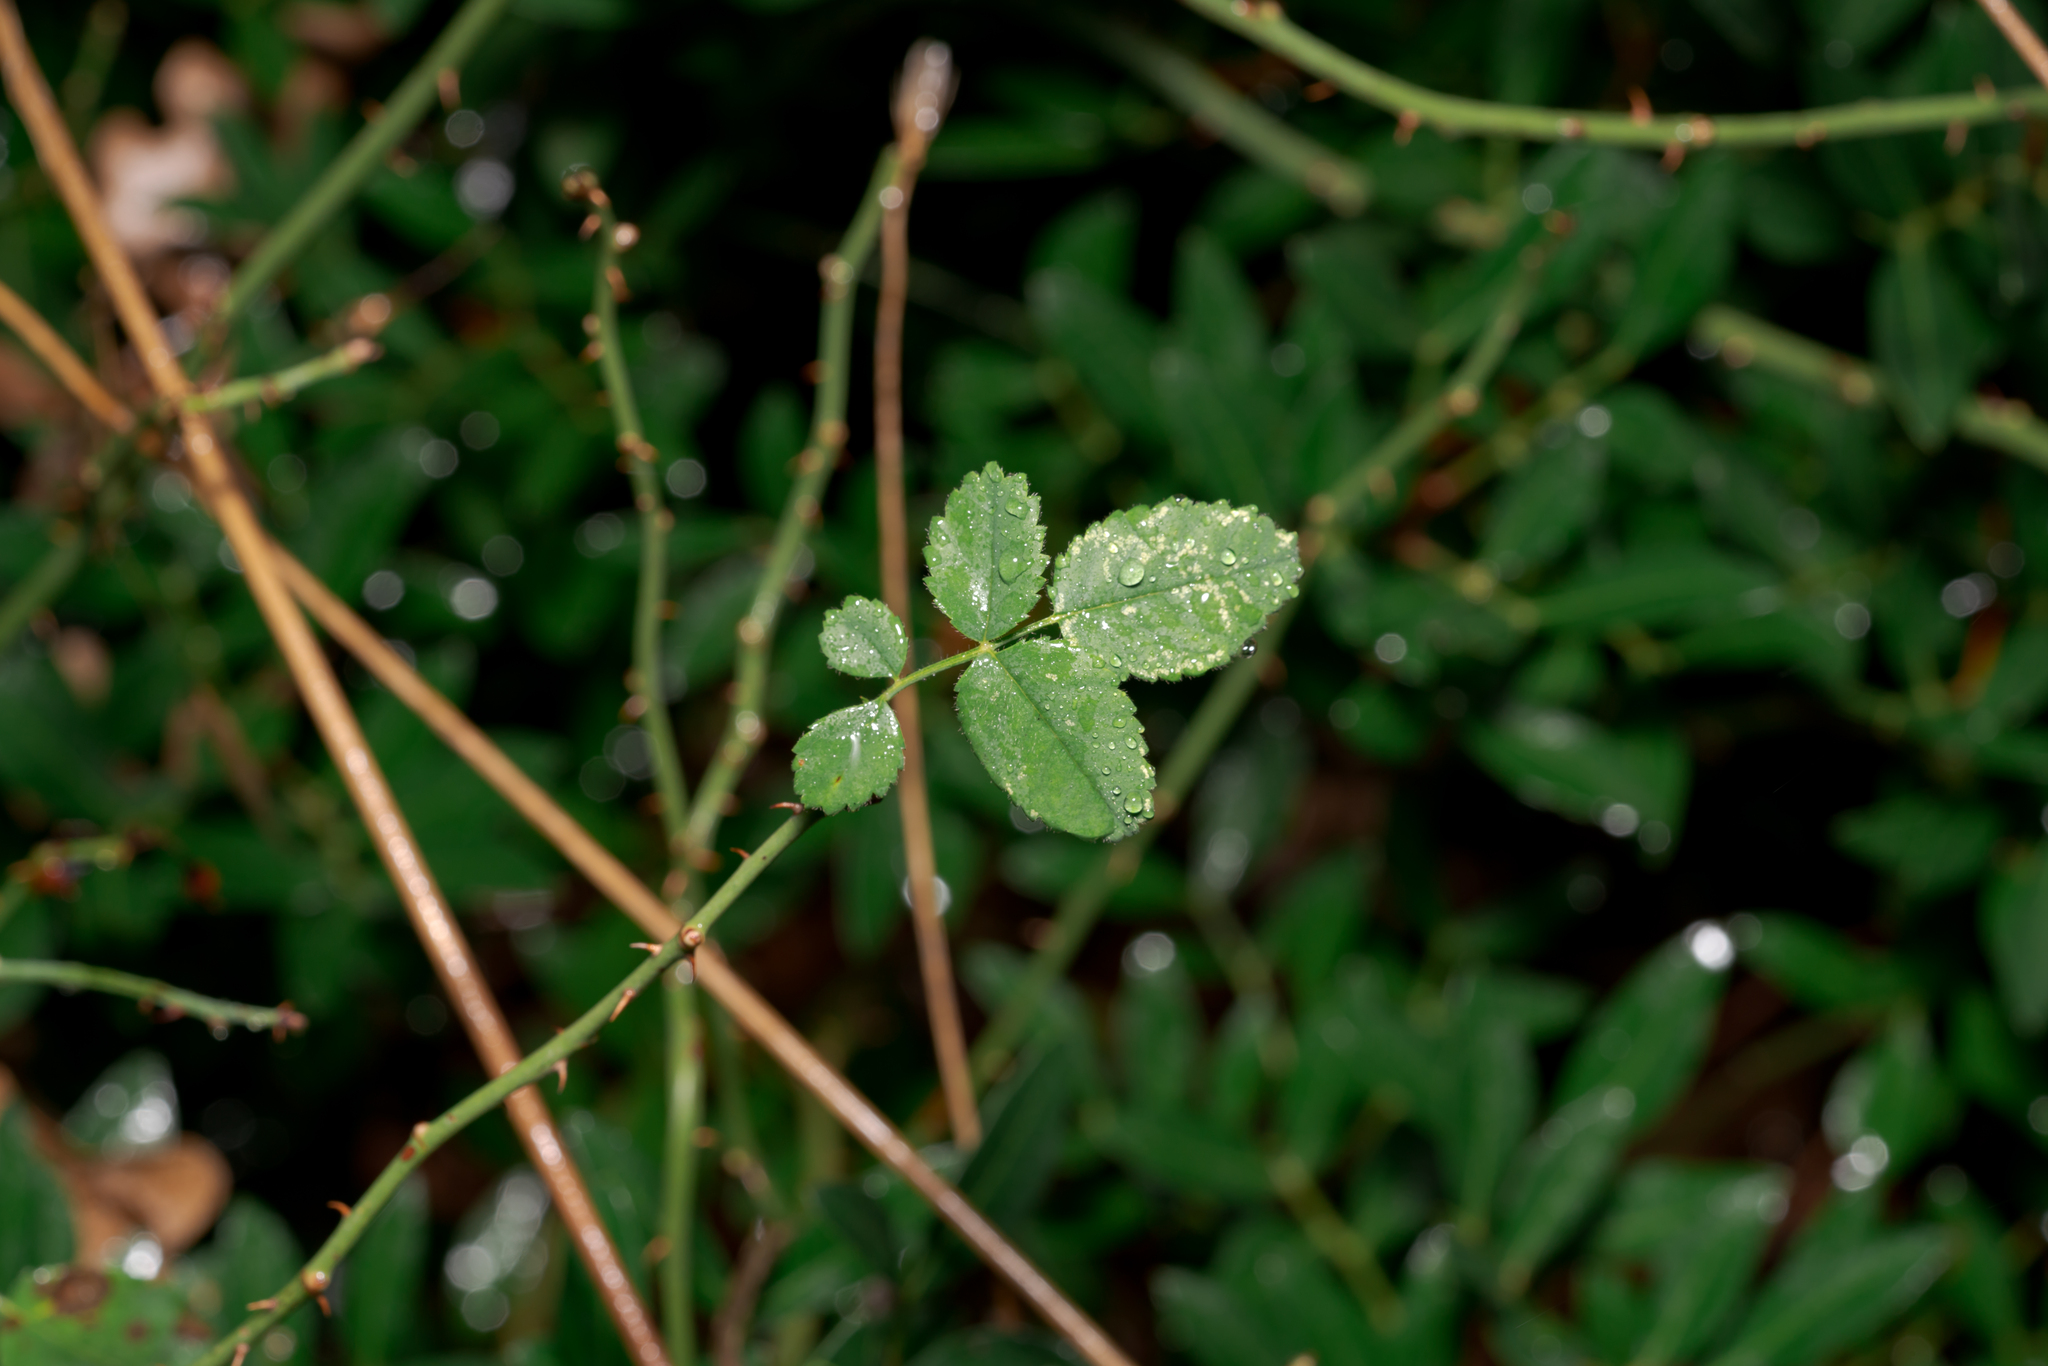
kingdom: Plantae
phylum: Tracheophyta
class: Magnoliopsida
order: Rosales
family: Rosaceae
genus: Rosa
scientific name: Rosa phoenicia
